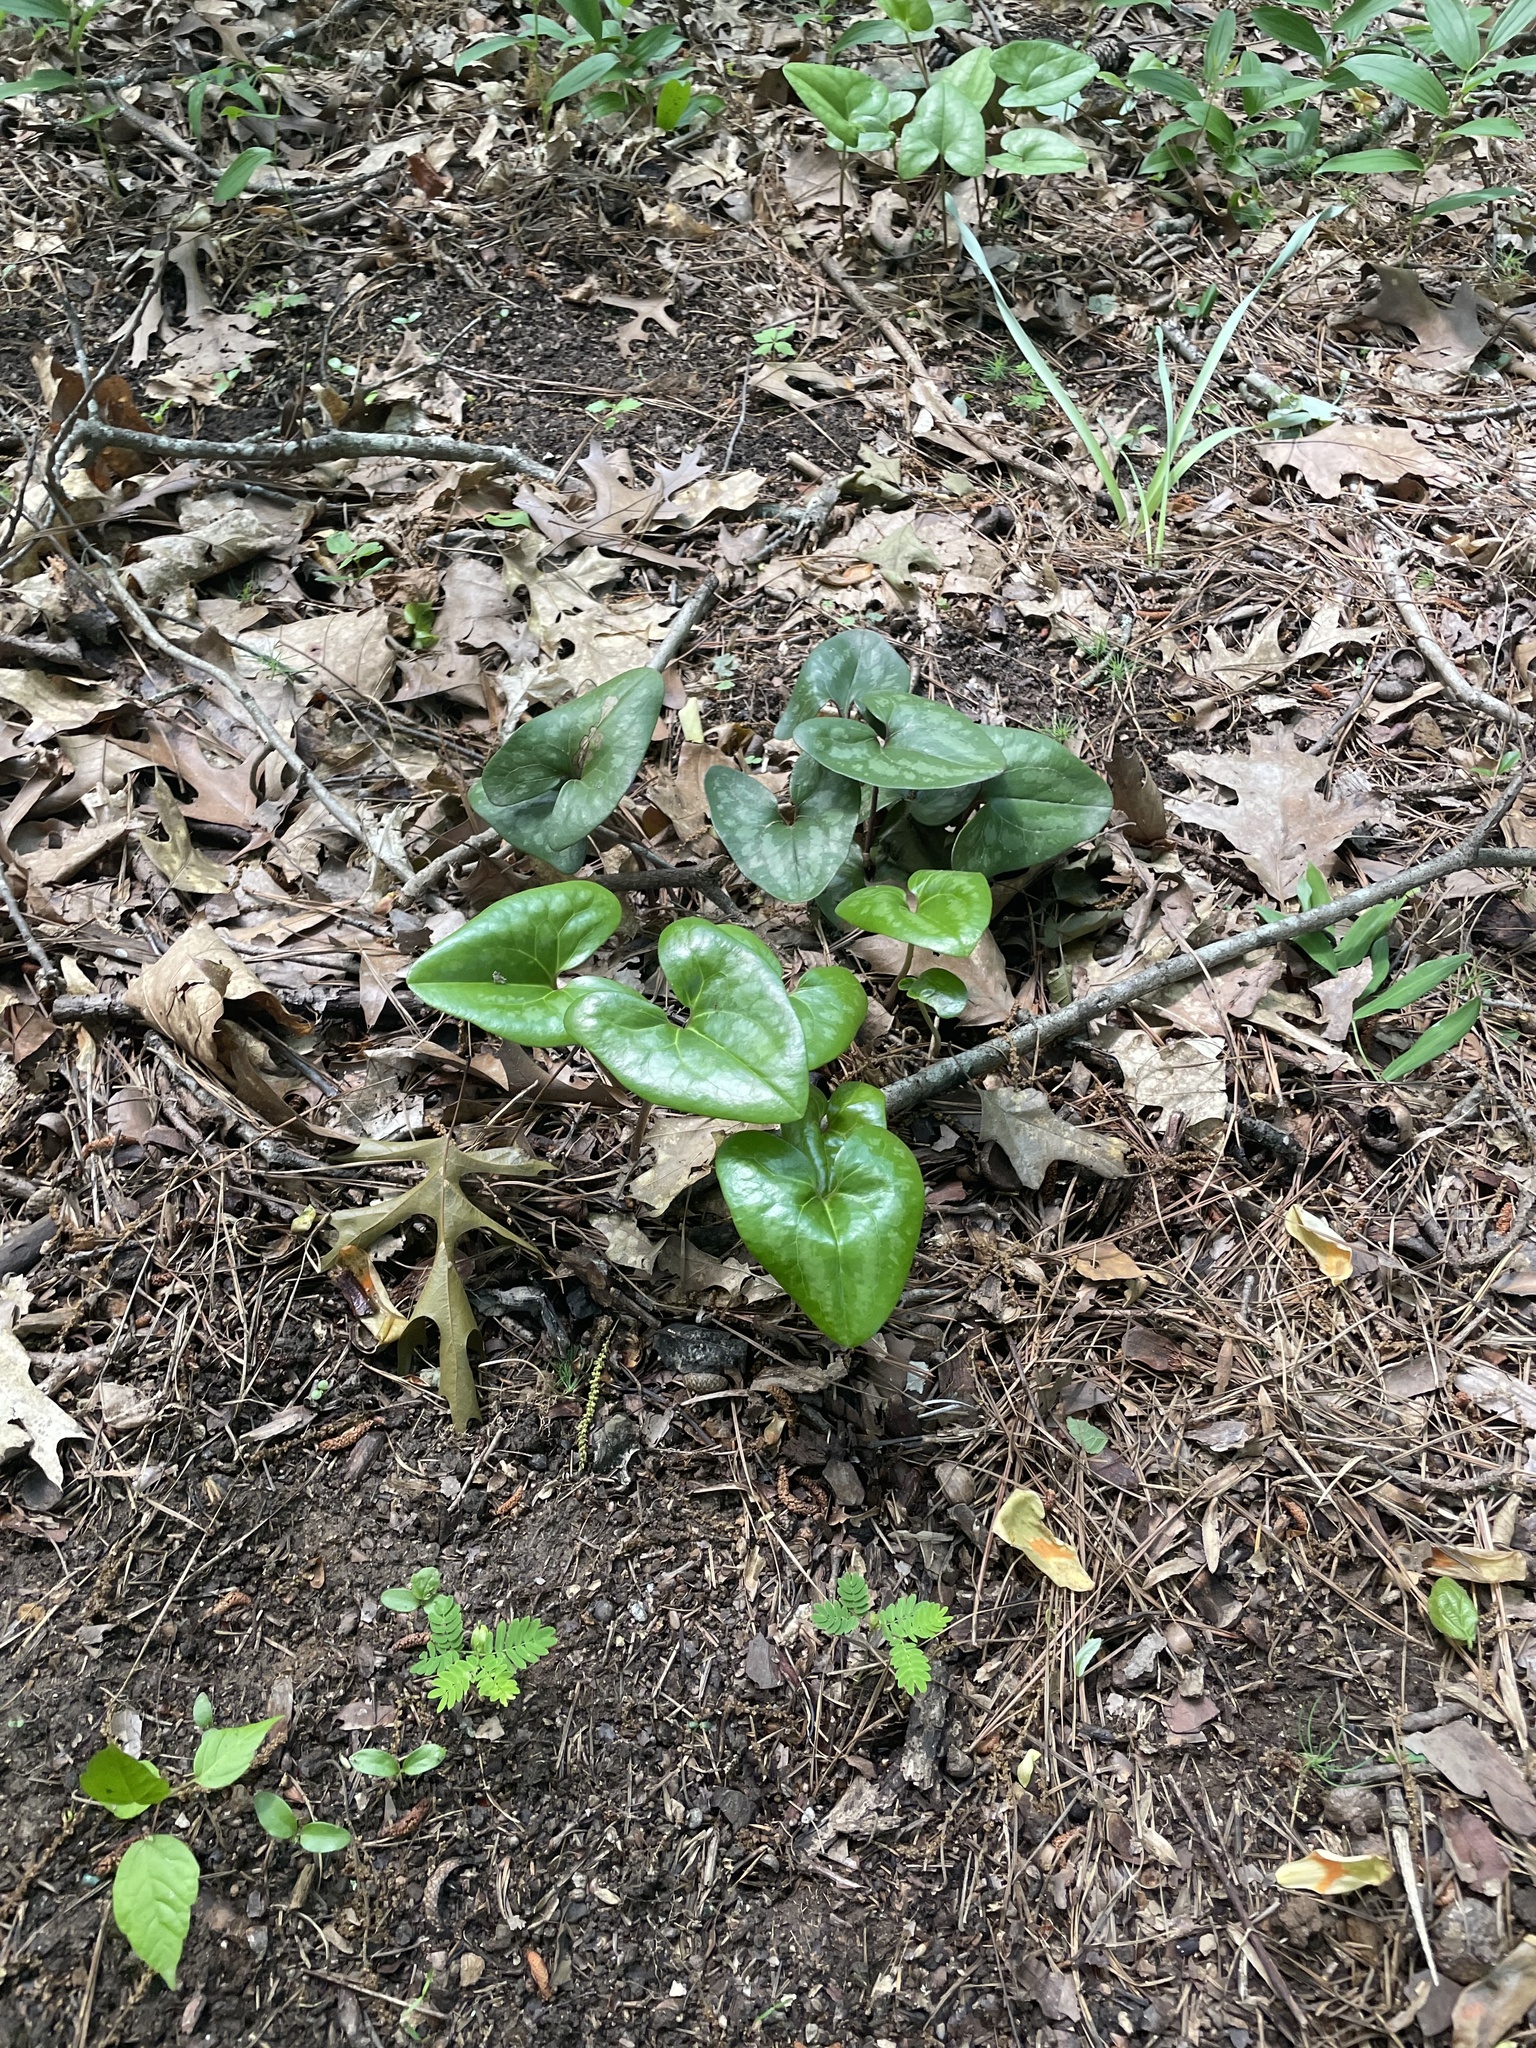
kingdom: Plantae
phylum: Tracheophyta
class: Magnoliopsida
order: Piperales
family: Aristolochiaceae
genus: Hexastylis
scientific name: Hexastylis arifolia
